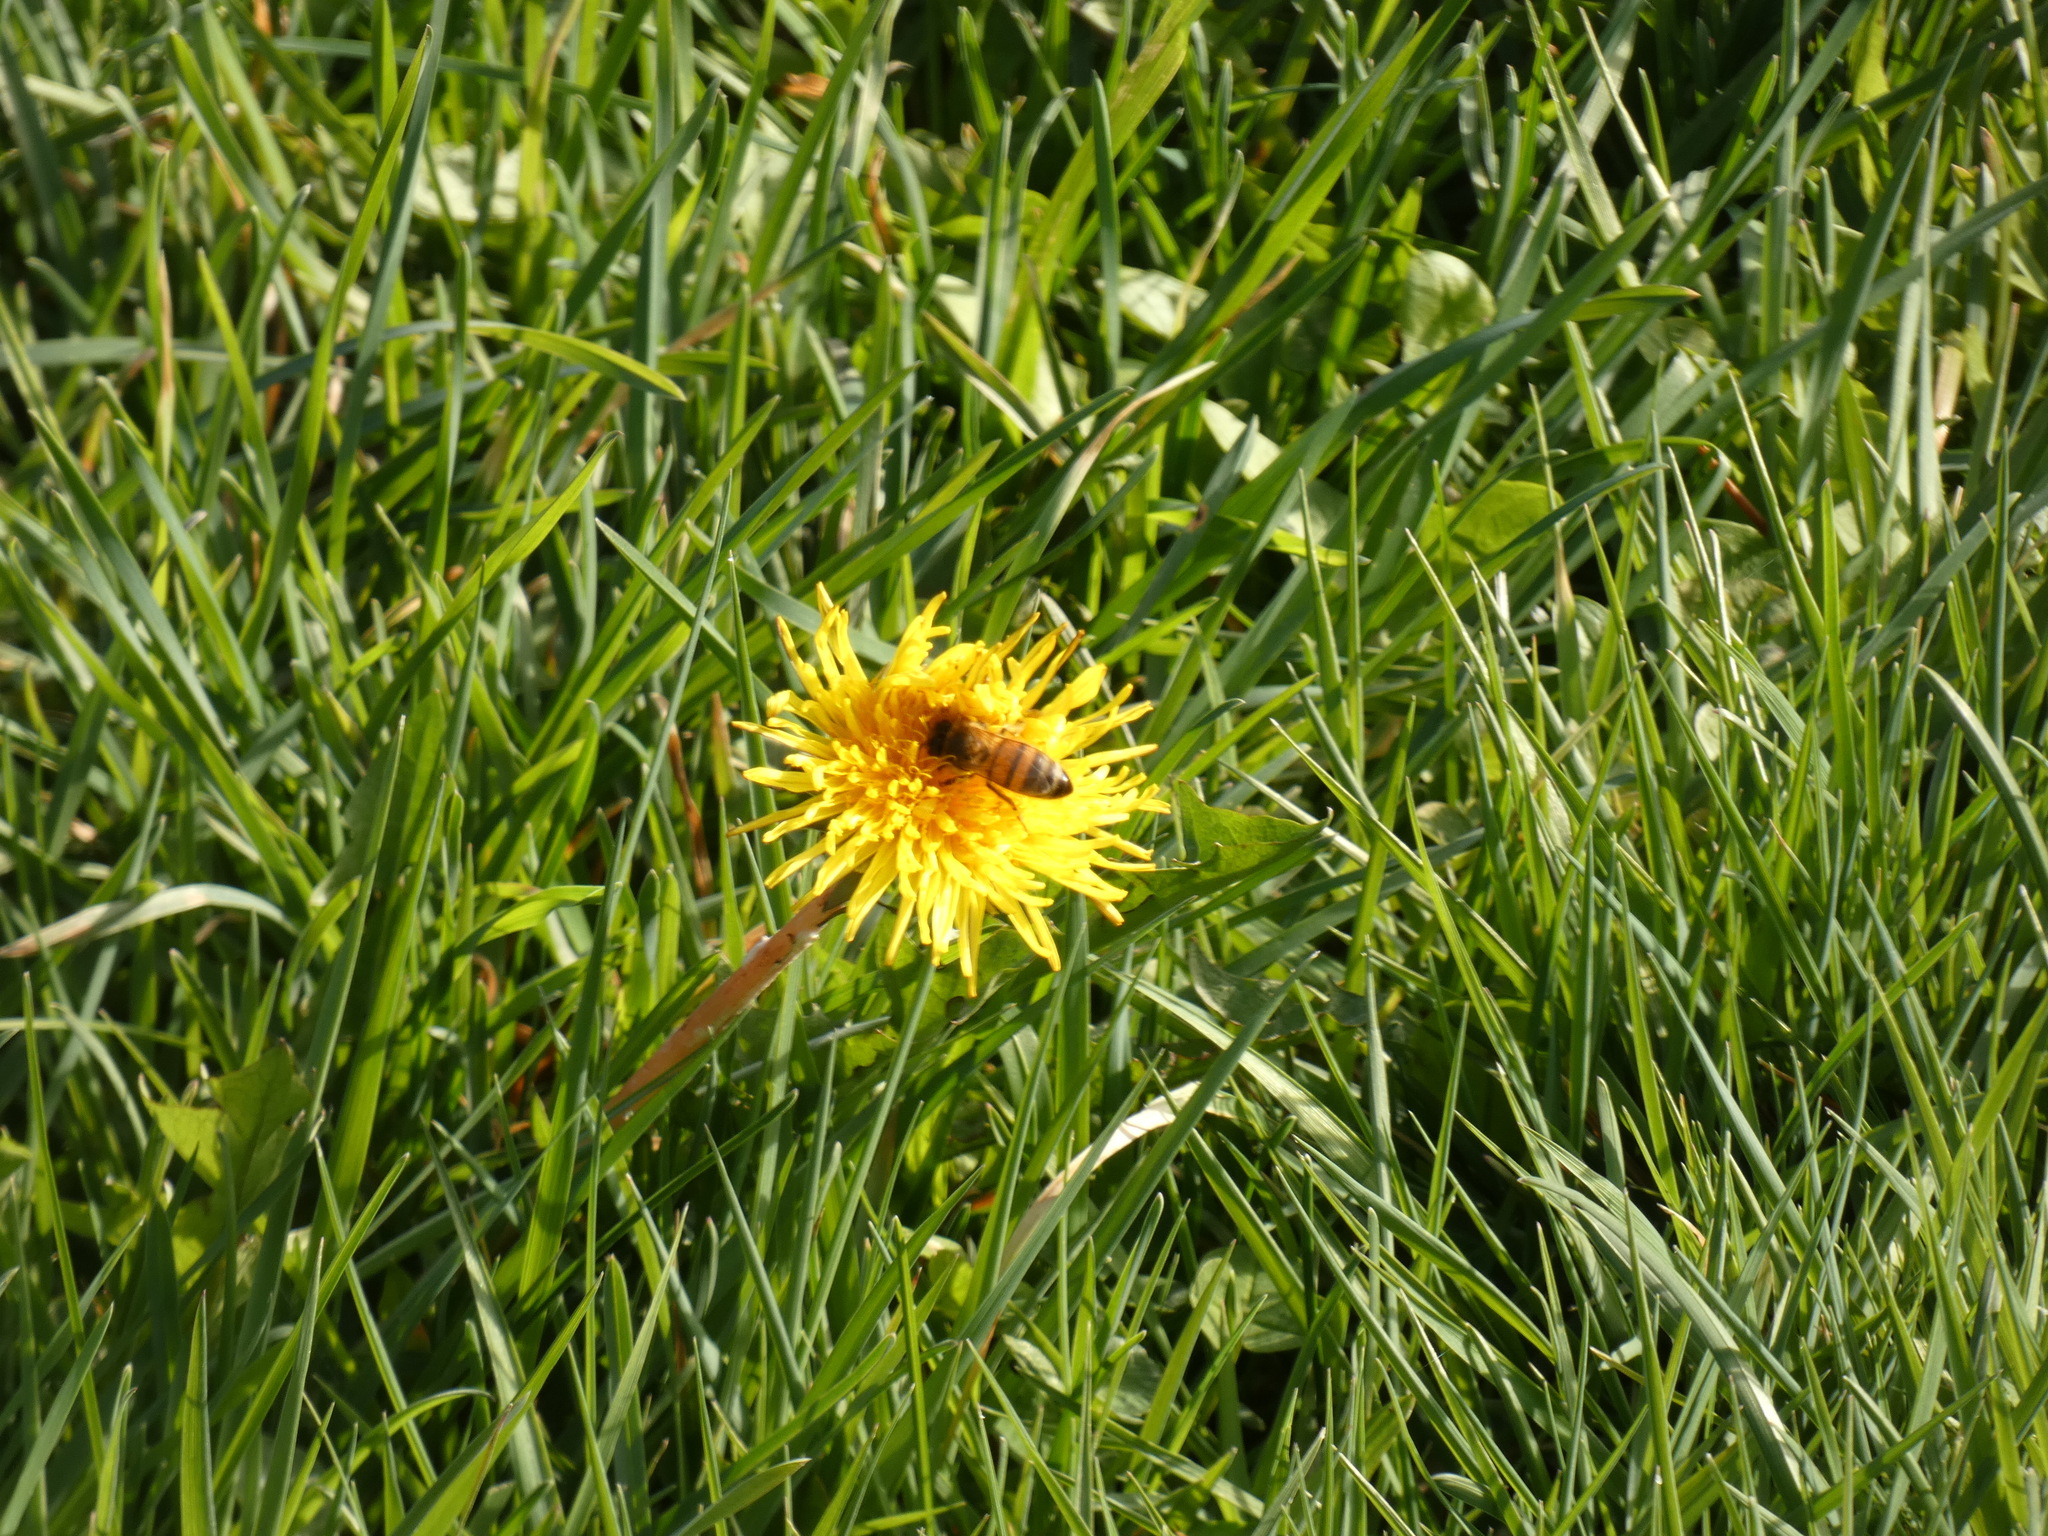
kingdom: Animalia
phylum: Arthropoda
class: Insecta
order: Hymenoptera
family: Apidae
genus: Apis
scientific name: Apis mellifera
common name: Honey bee
